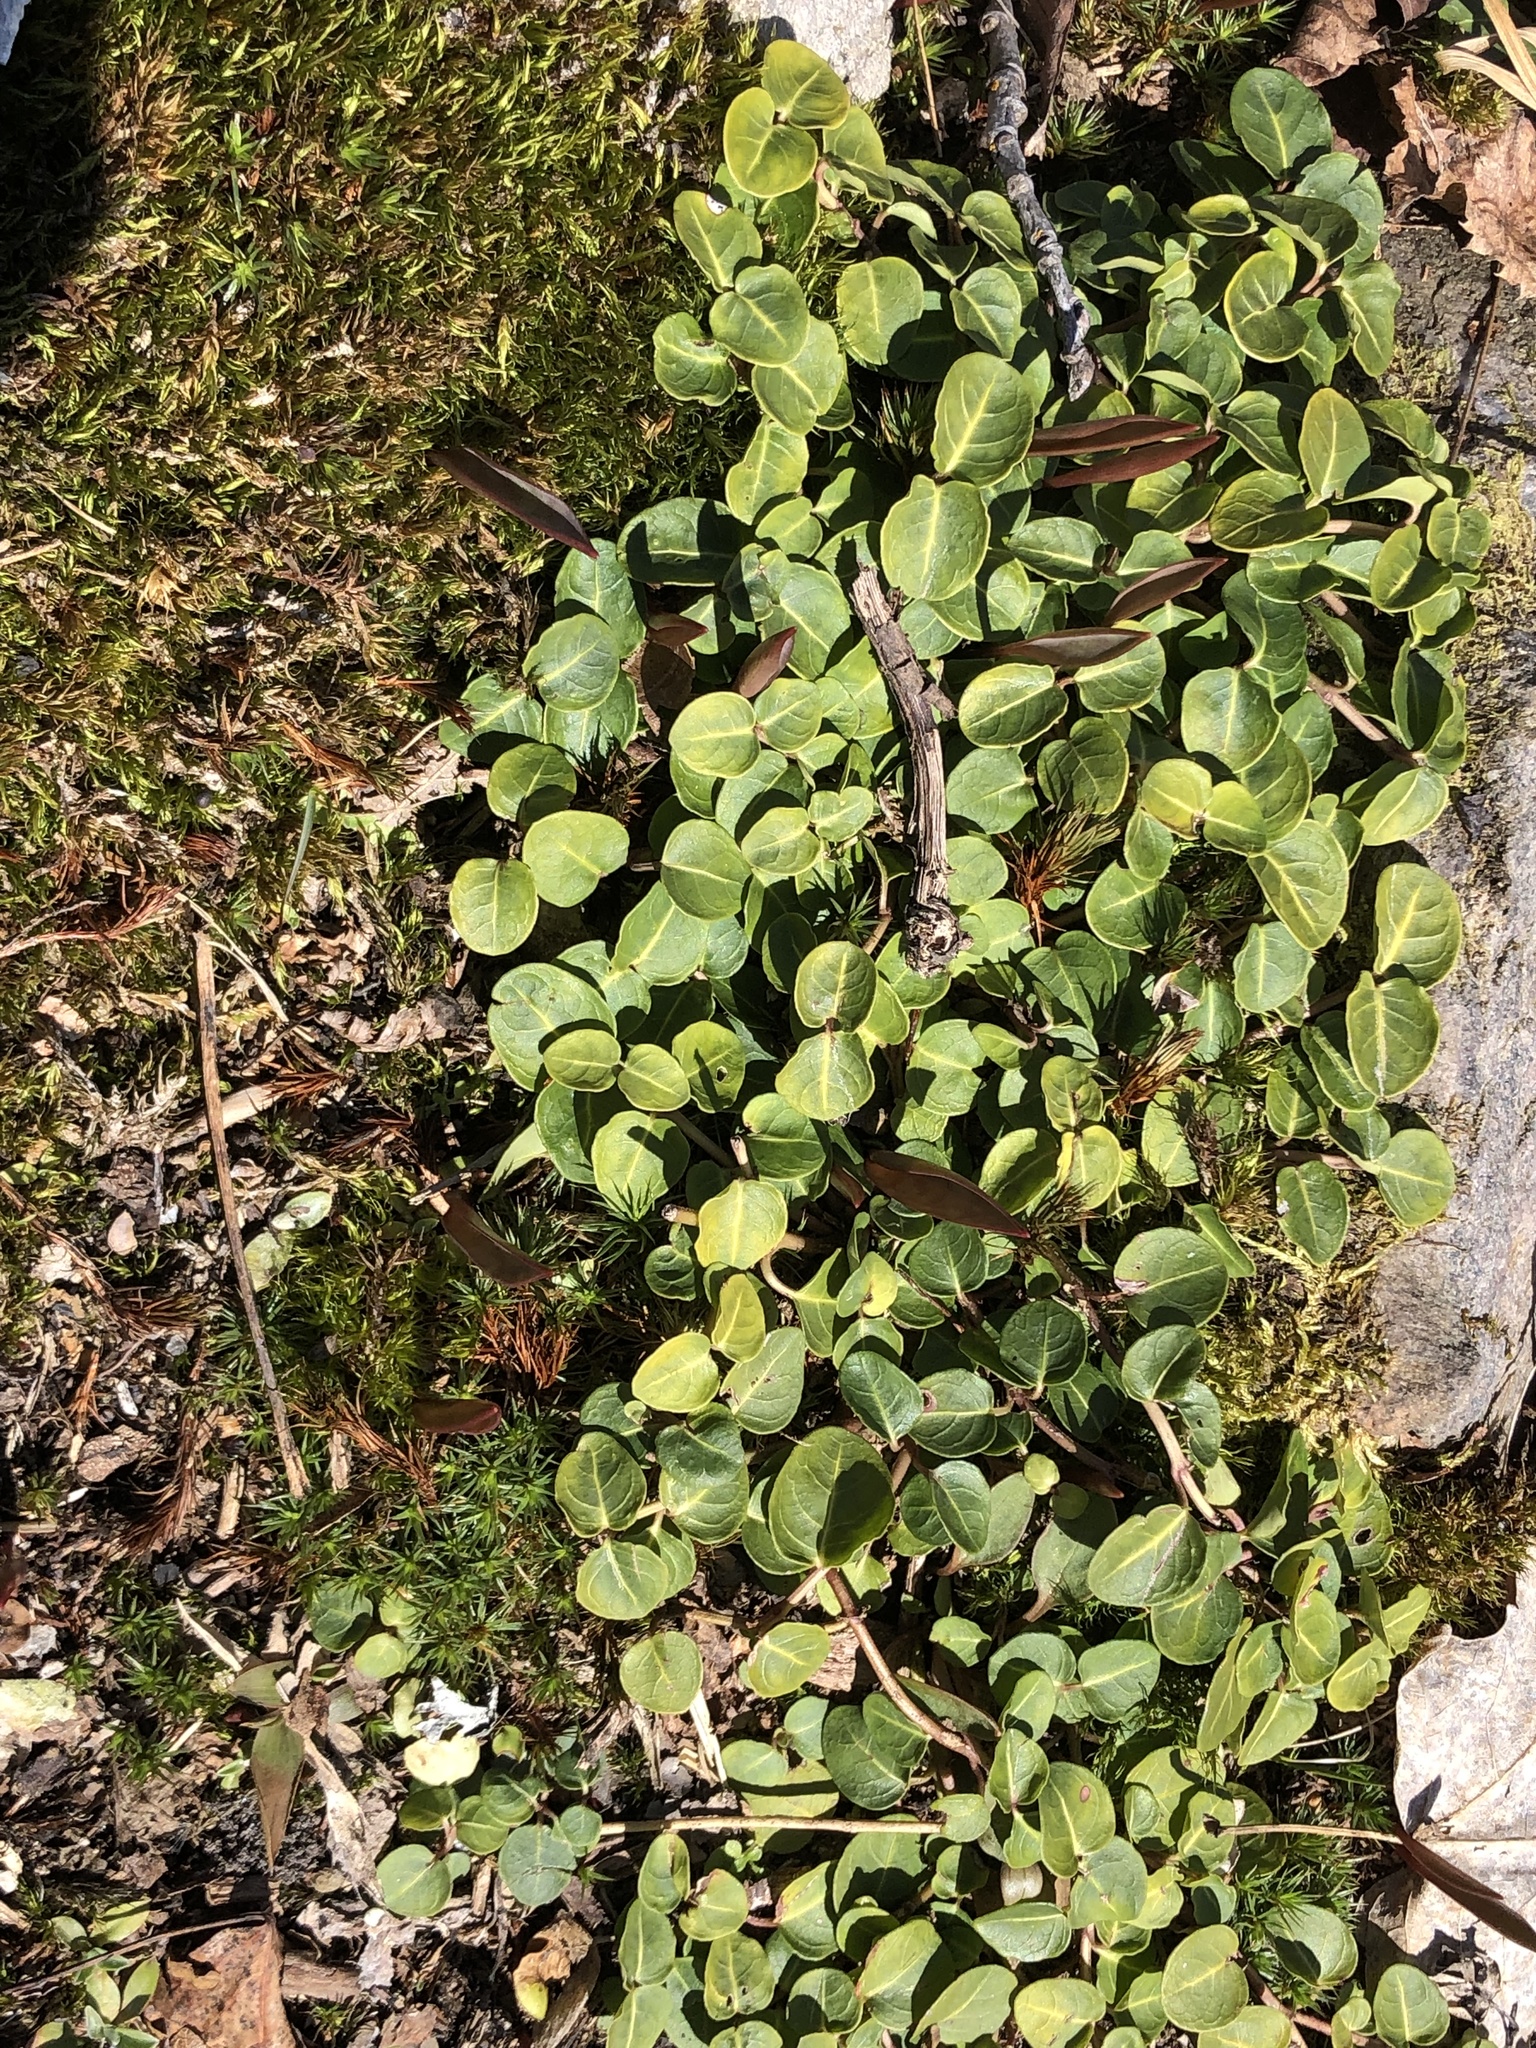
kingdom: Plantae
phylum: Tracheophyta
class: Magnoliopsida
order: Gentianales
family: Rubiaceae
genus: Mitchella
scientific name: Mitchella repens
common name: Partridge-berry
